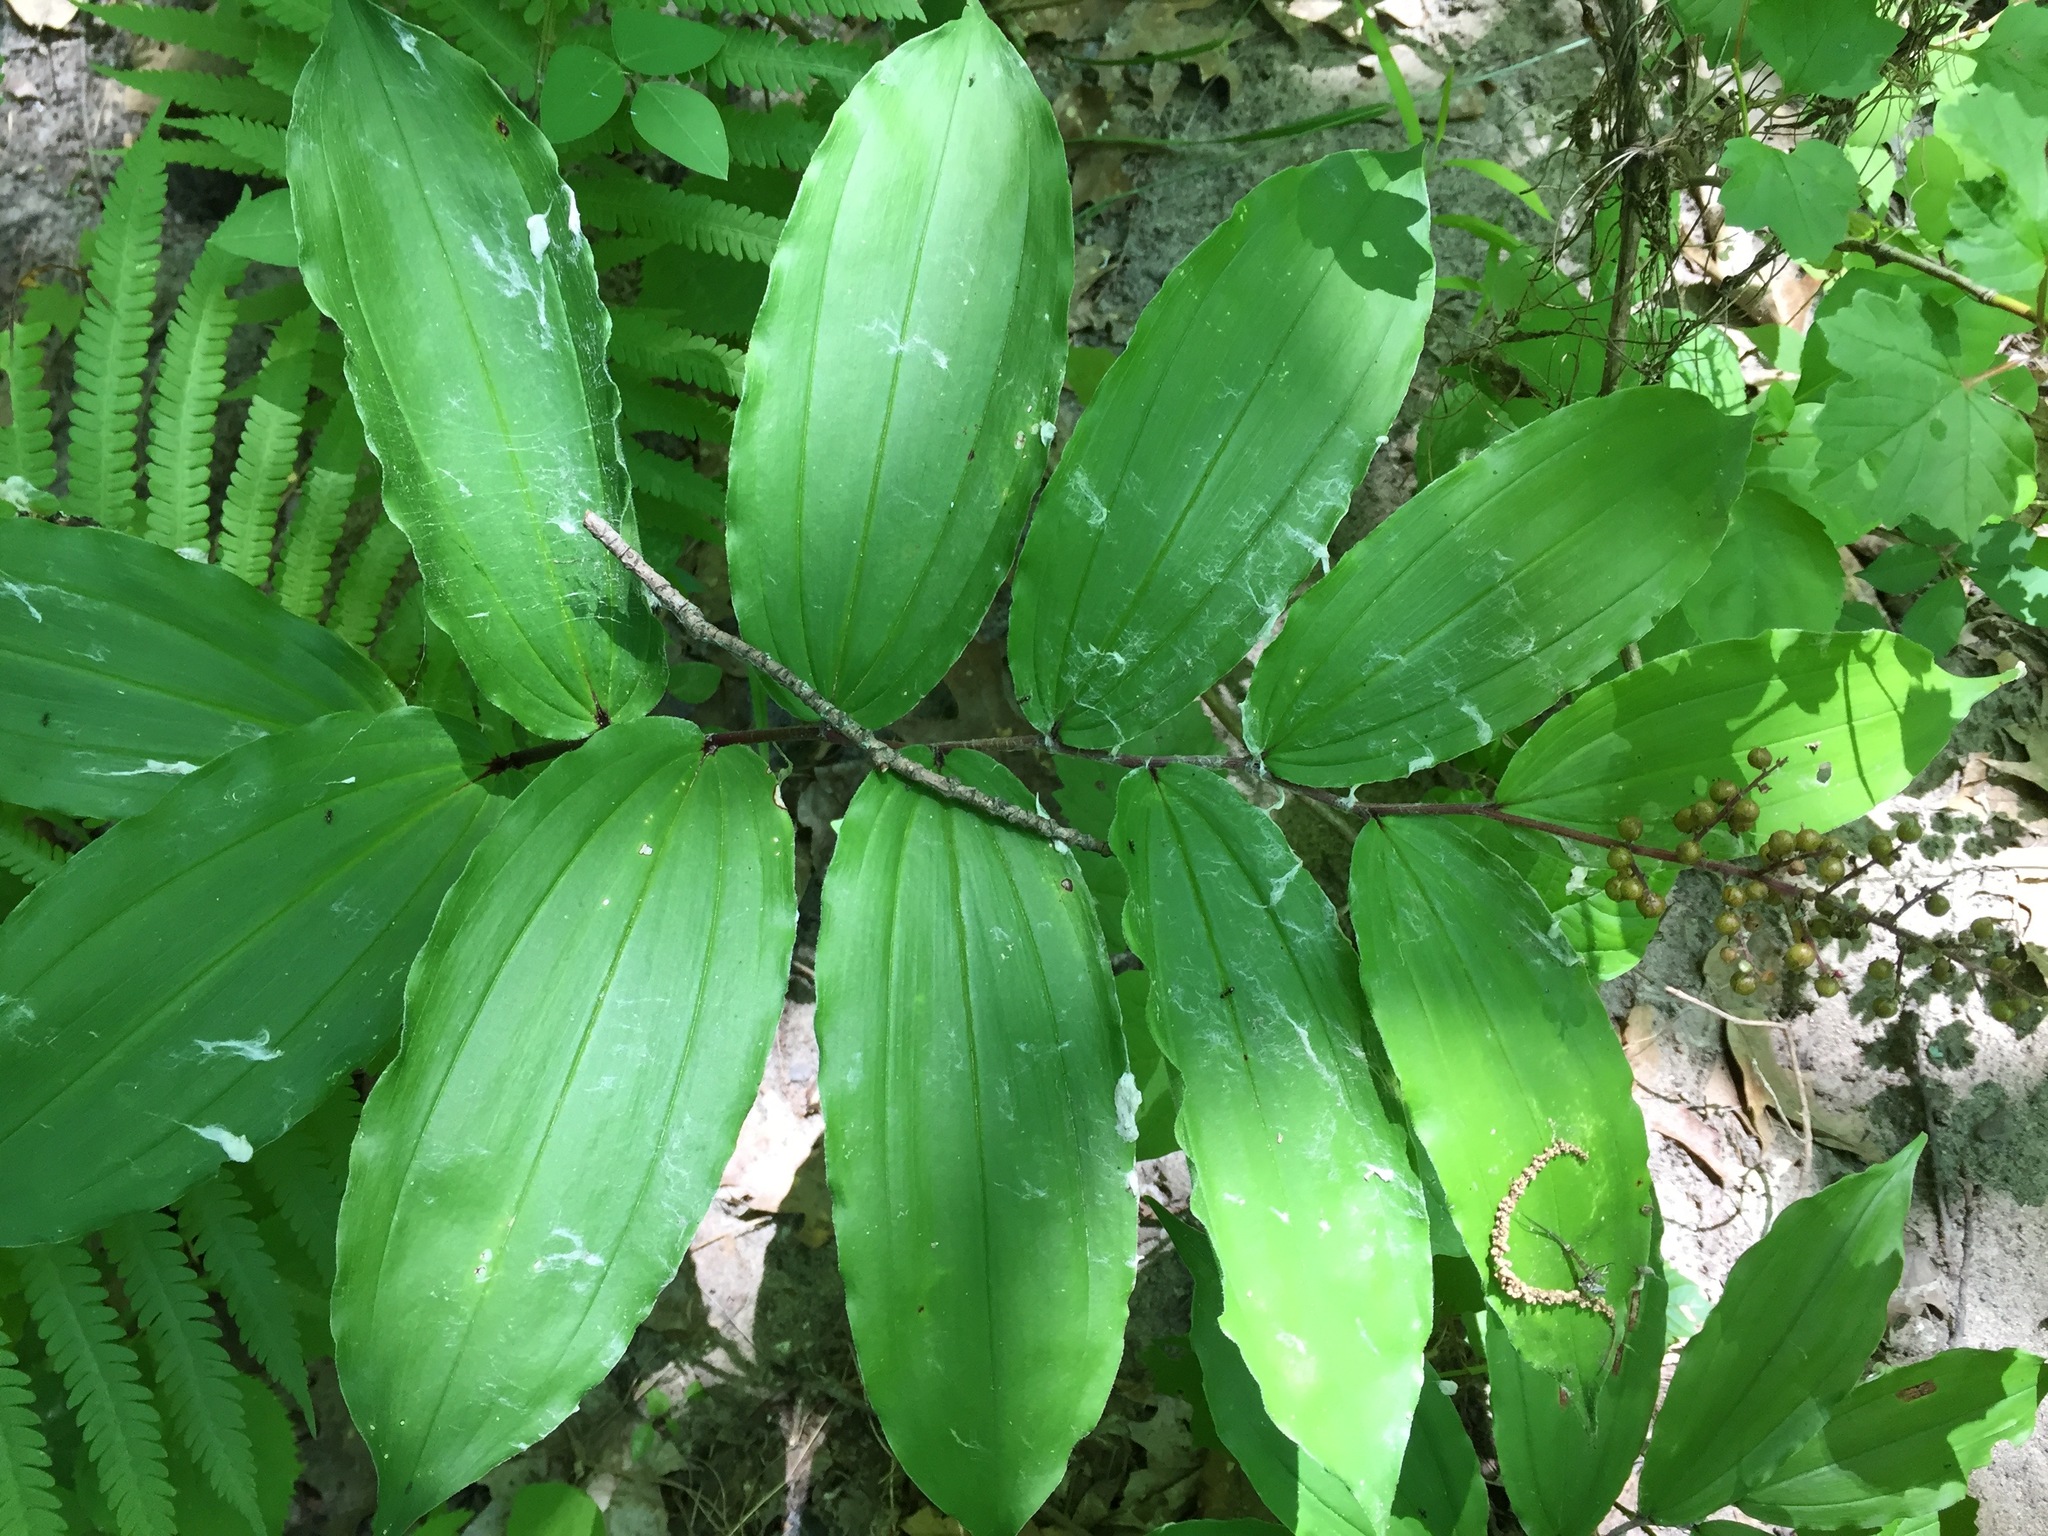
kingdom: Plantae
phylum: Tracheophyta
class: Liliopsida
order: Asparagales
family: Asparagaceae
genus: Maianthemum
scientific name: Maianthemum racemosum
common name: False spikenard
